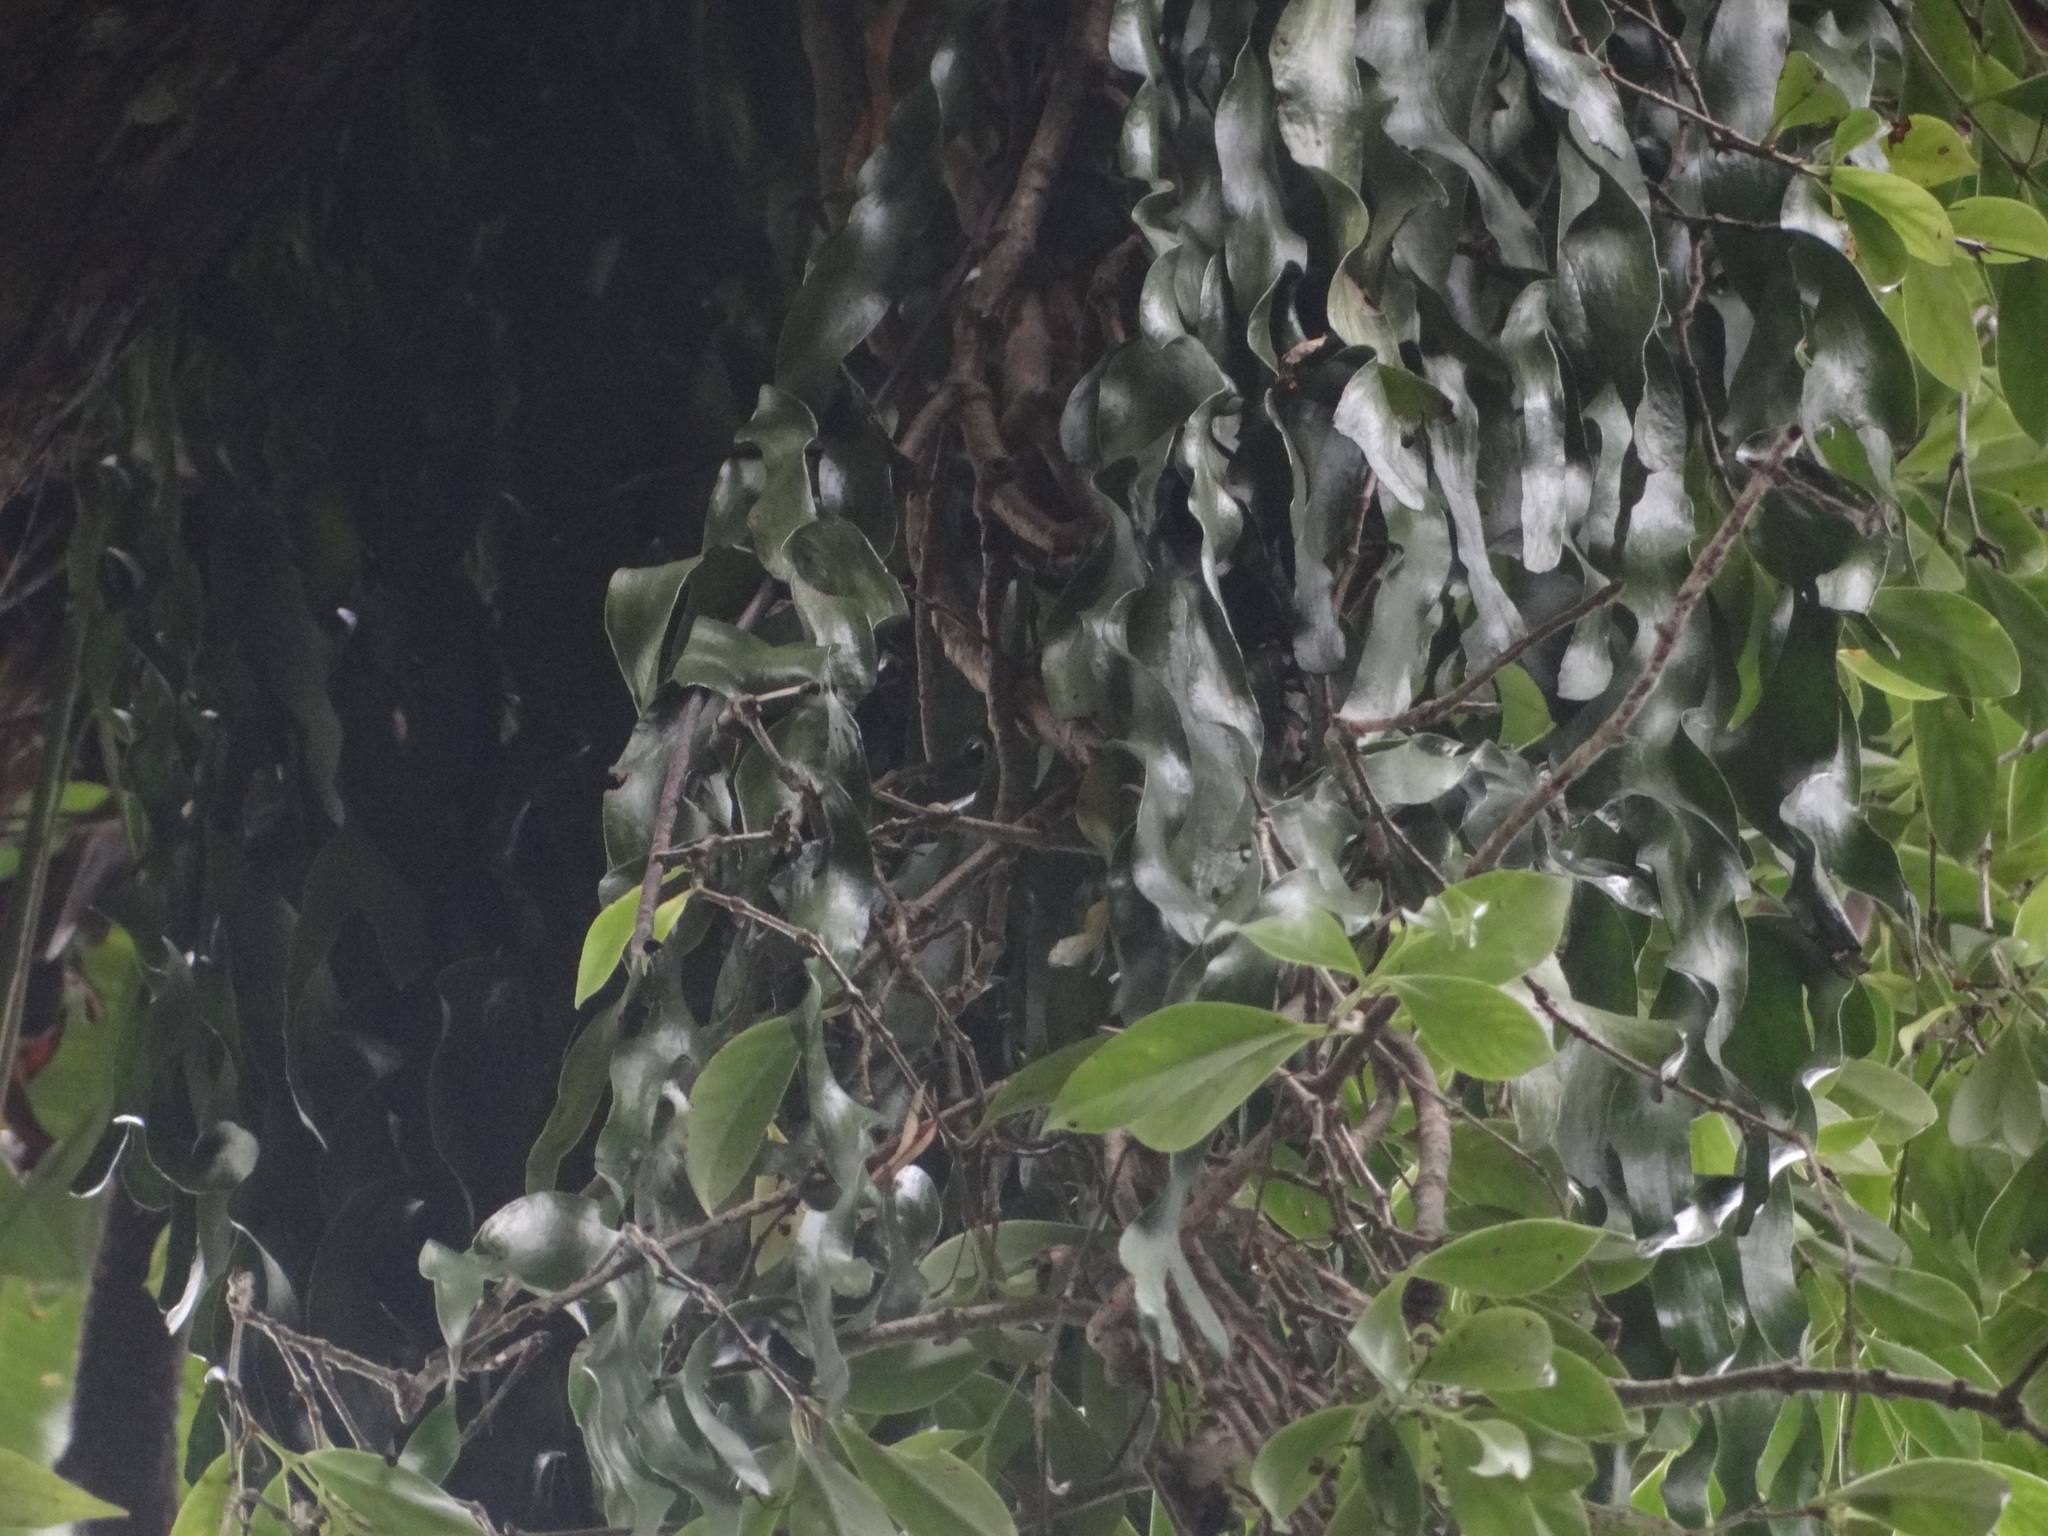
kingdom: Plantae
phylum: Tracheophyta
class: Polypodiopsida
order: Ophioglossales
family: Ophioglossaceae
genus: Ophioderma
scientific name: Ophioderma pendulum
